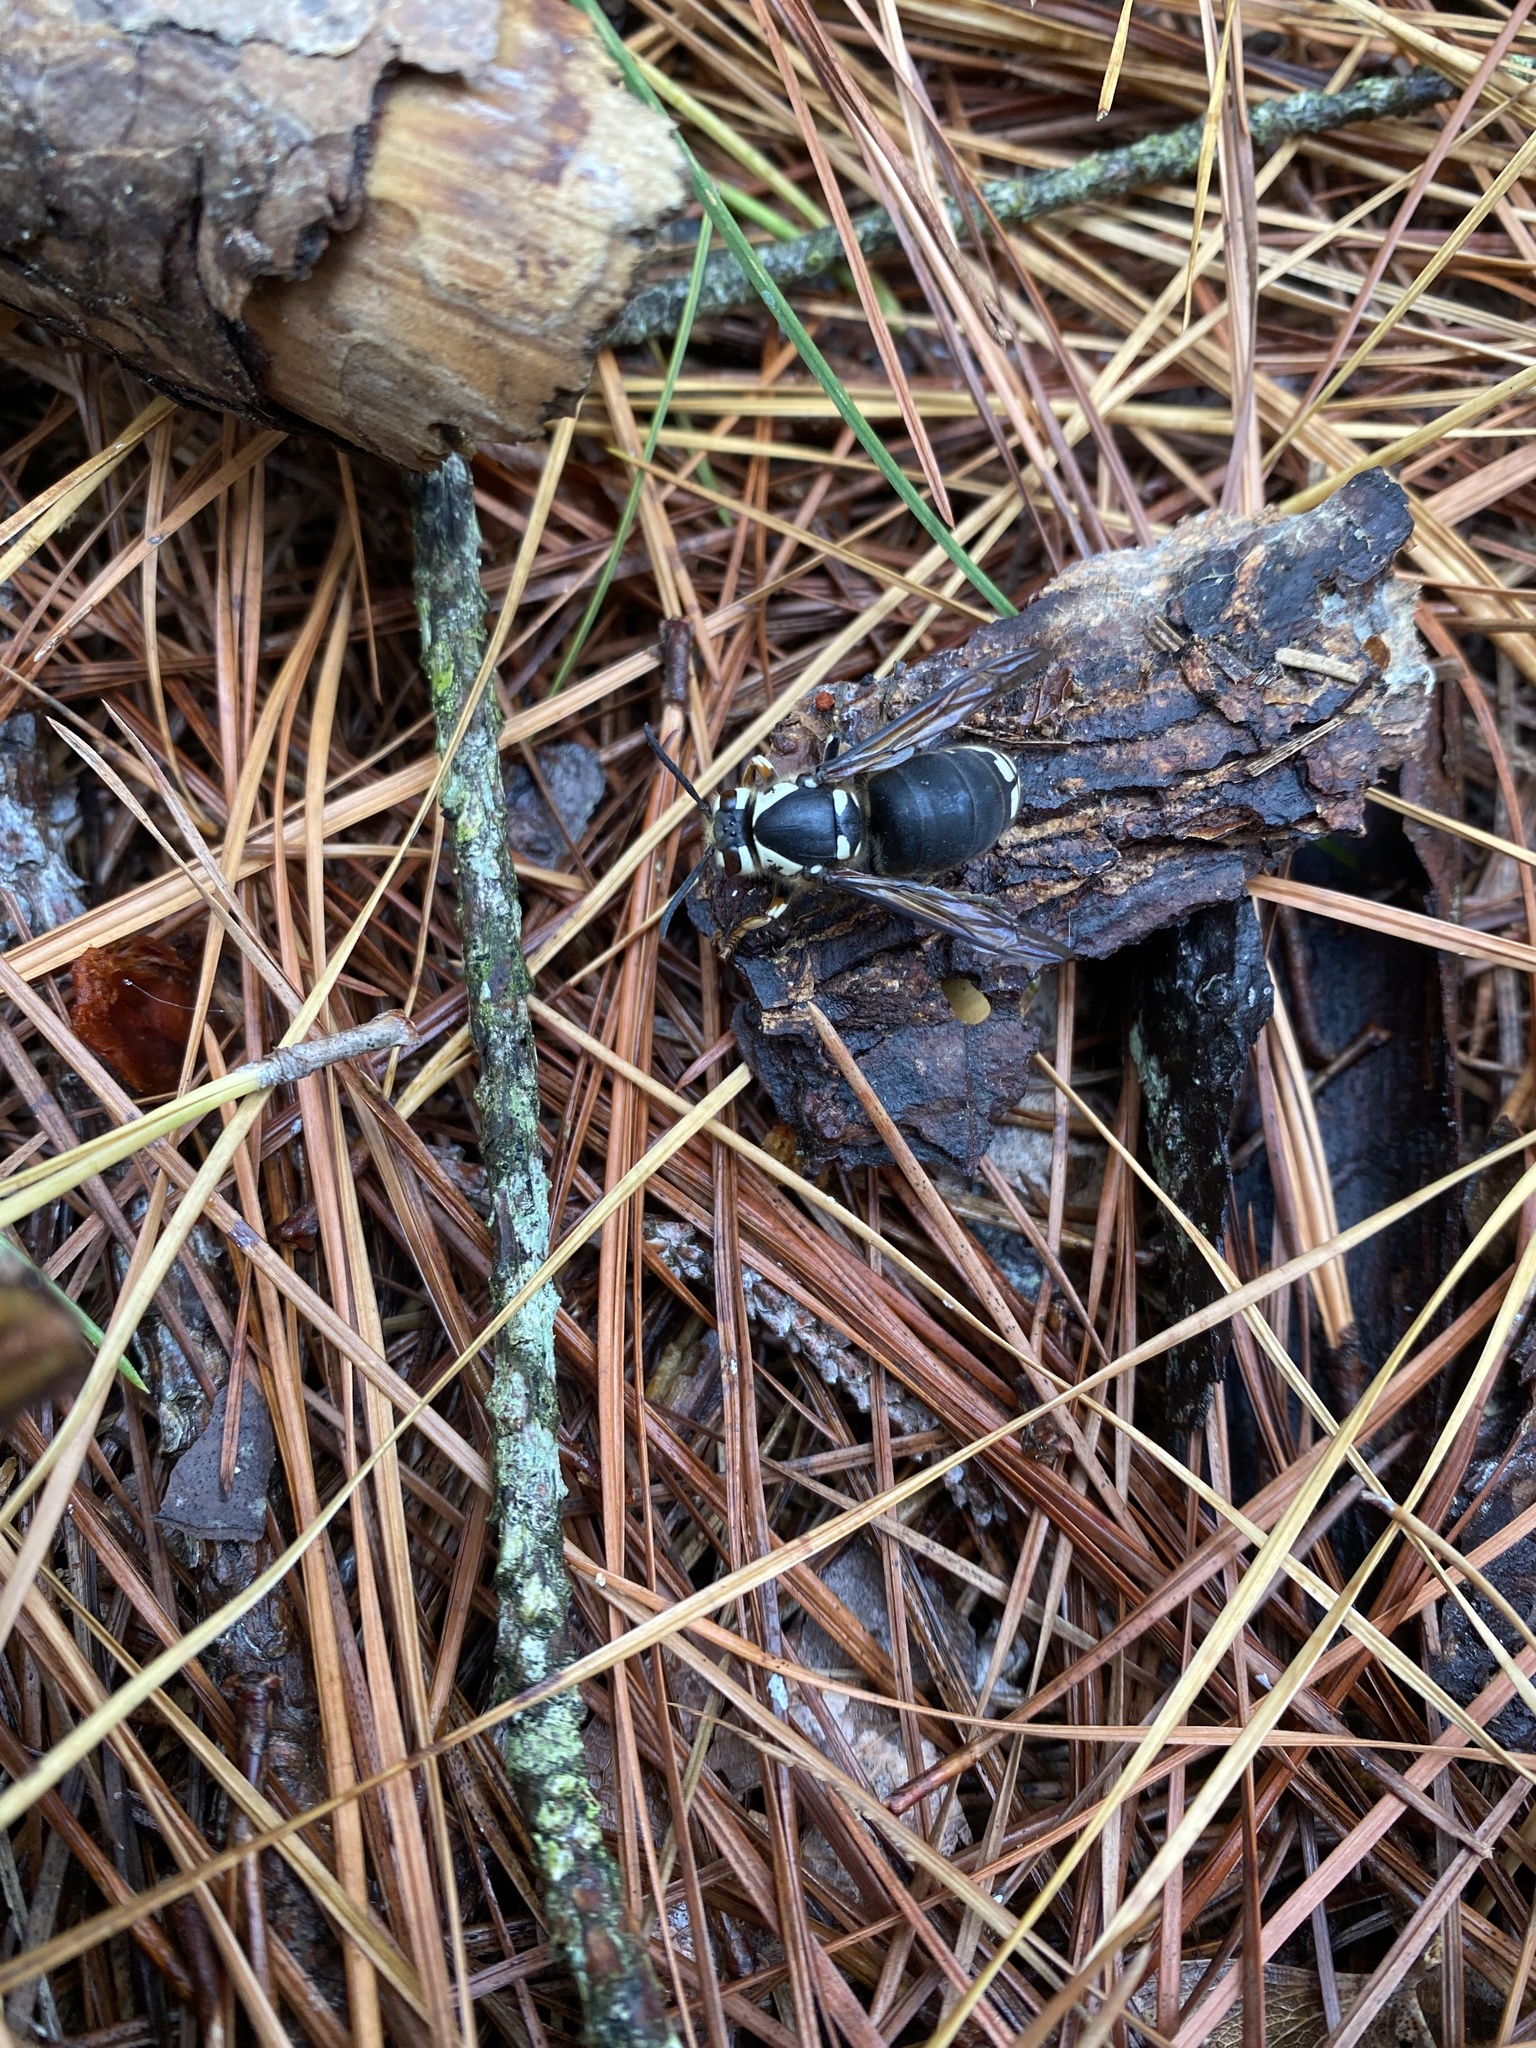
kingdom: Animalia
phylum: Arthropoda
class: Insecta
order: Hymenoptera
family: Vespidae
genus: Dolichovespula
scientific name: Dolichovespula maculata
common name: Bald-faced hornet
